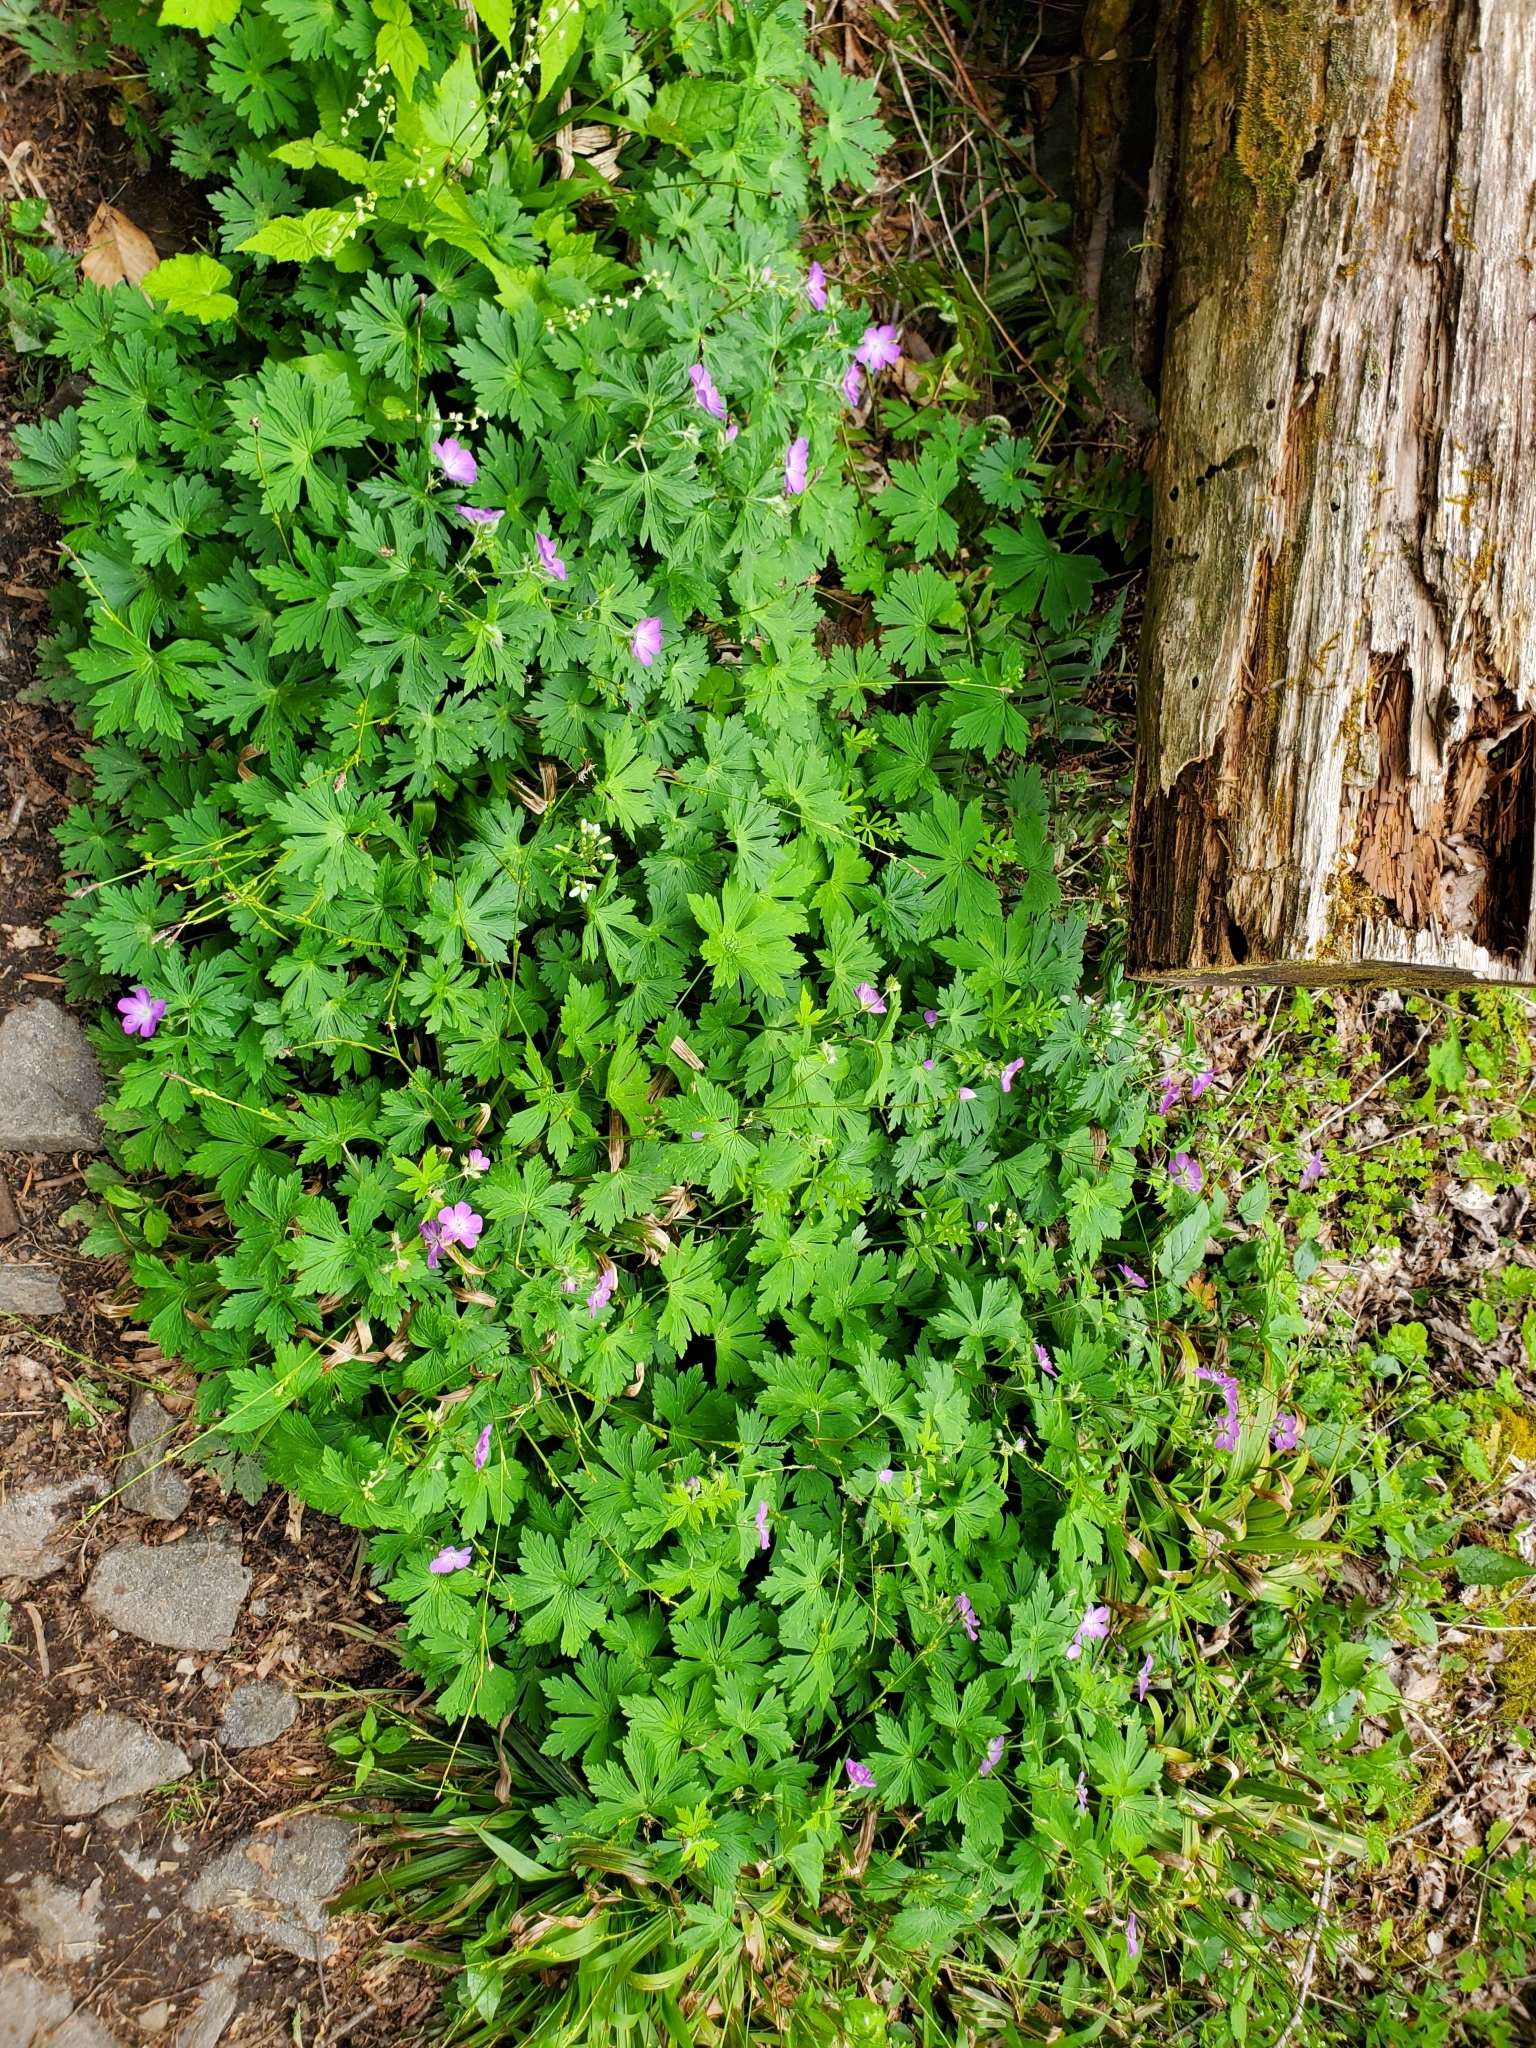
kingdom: Plantae
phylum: Tracheophyta
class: Magnoliopsida
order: Geraniales
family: Geraniaceae
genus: Geranium
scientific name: Geranium maculatum
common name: Spotted geranium
